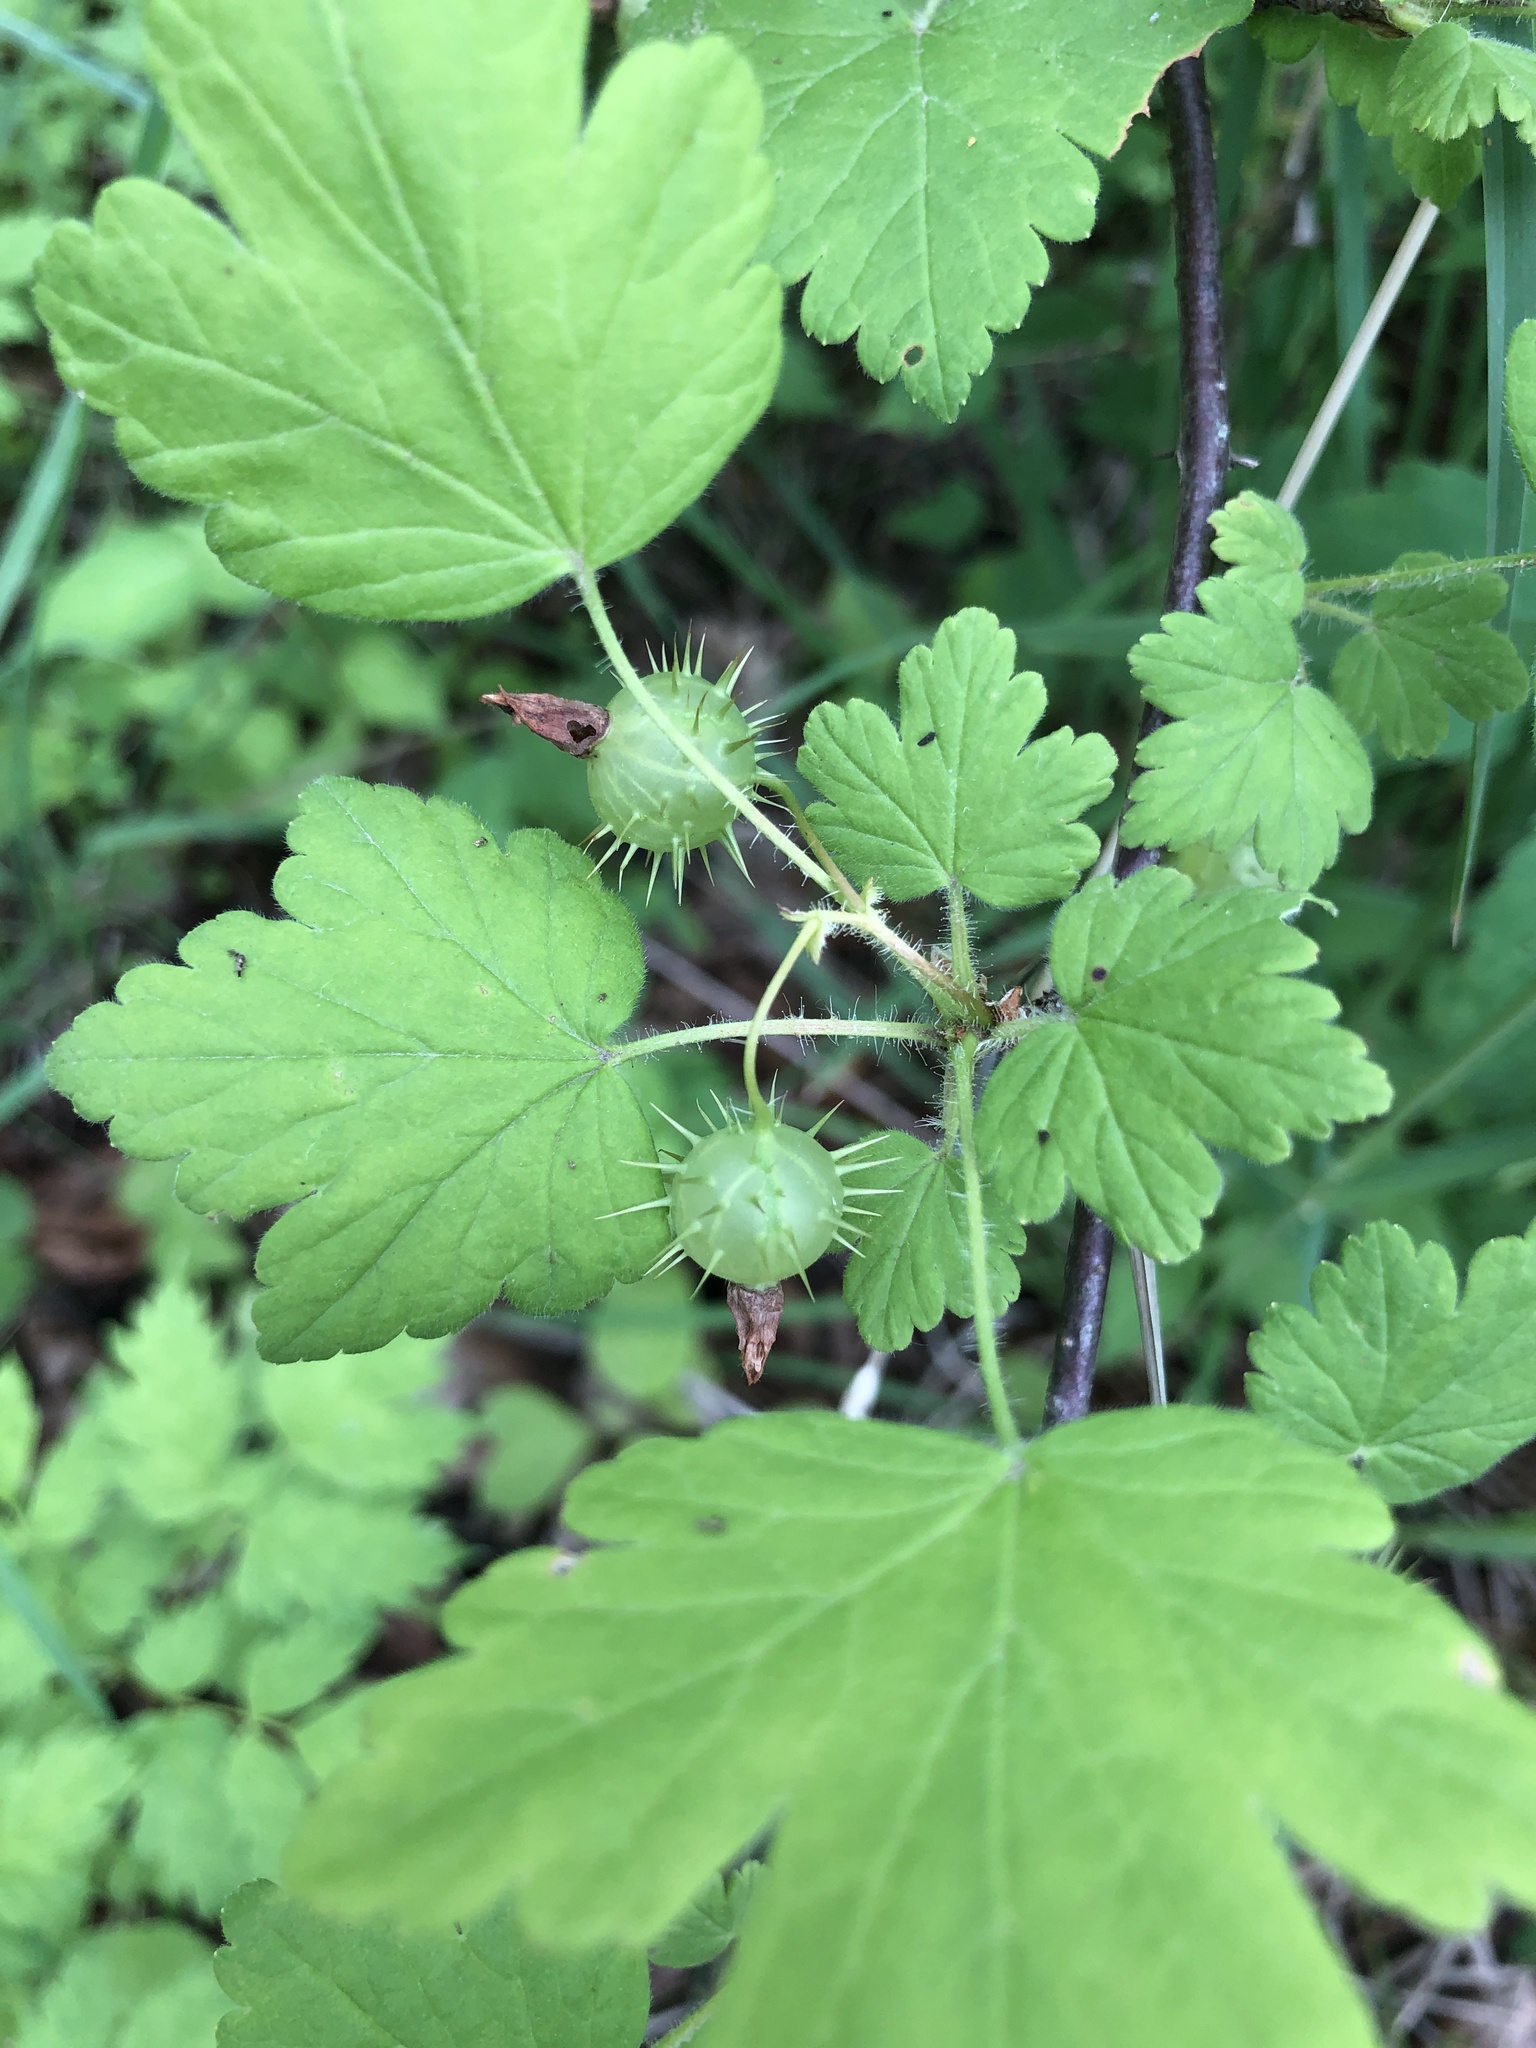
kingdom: Plantae
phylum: Tracheophyta
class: Magnoliopsida
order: Saxifragales
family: Grossulariaceae
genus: Ribes
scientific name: Ribes cynosbati
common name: American gooseberry
